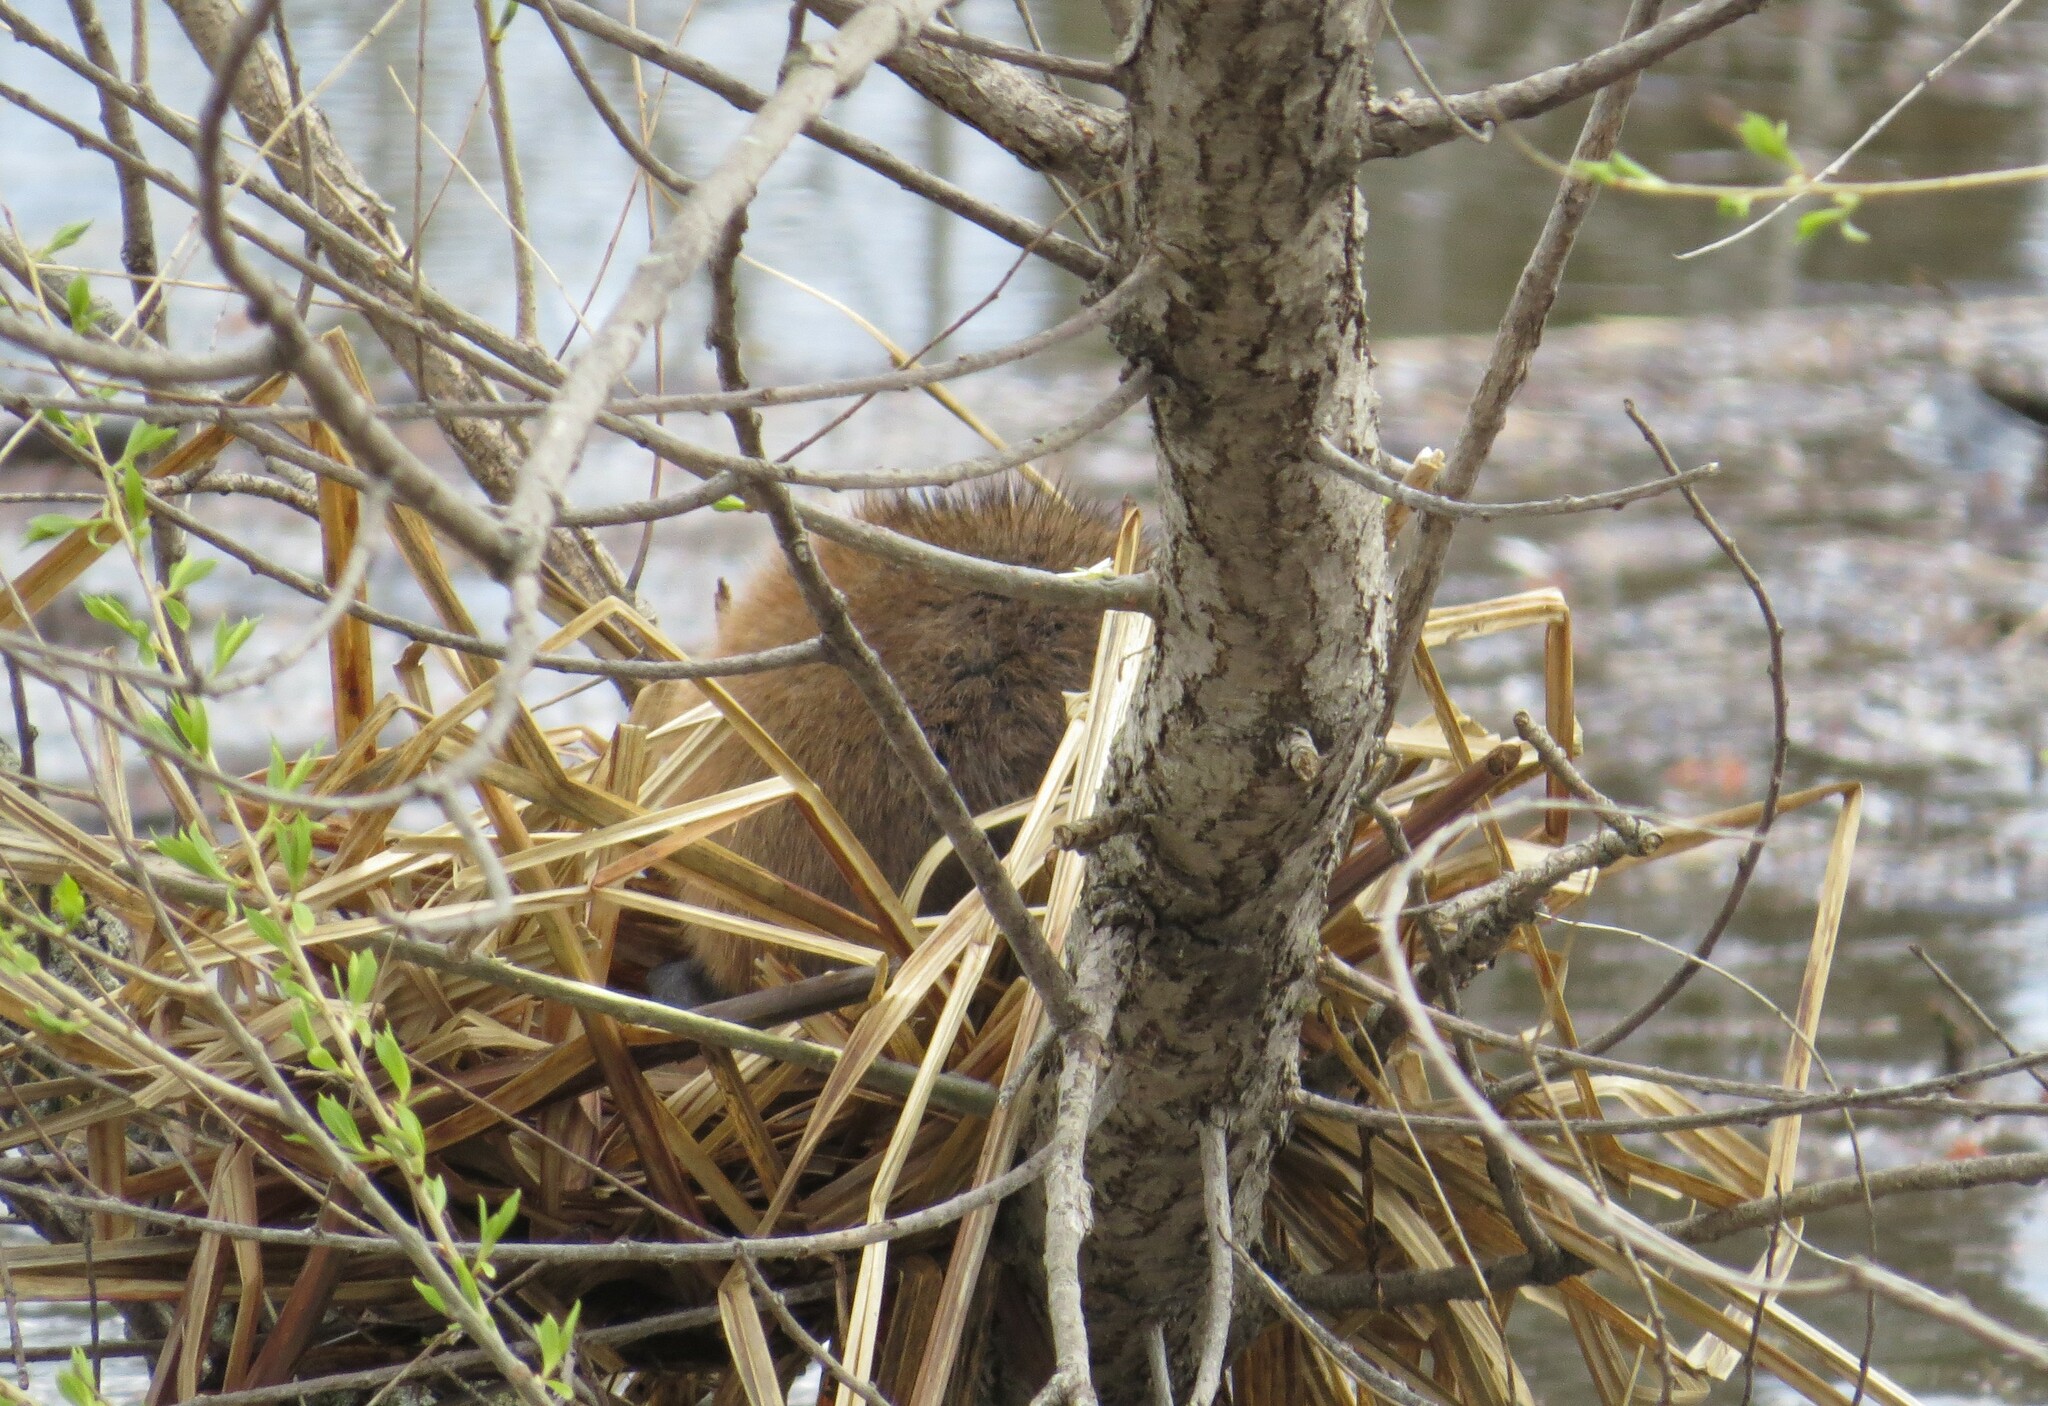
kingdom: Animalia
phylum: Chordata
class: Mammalia
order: Rodentia
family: Cricetidae
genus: Ondatra
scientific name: Ondatra zibethicus
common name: Muskrat
